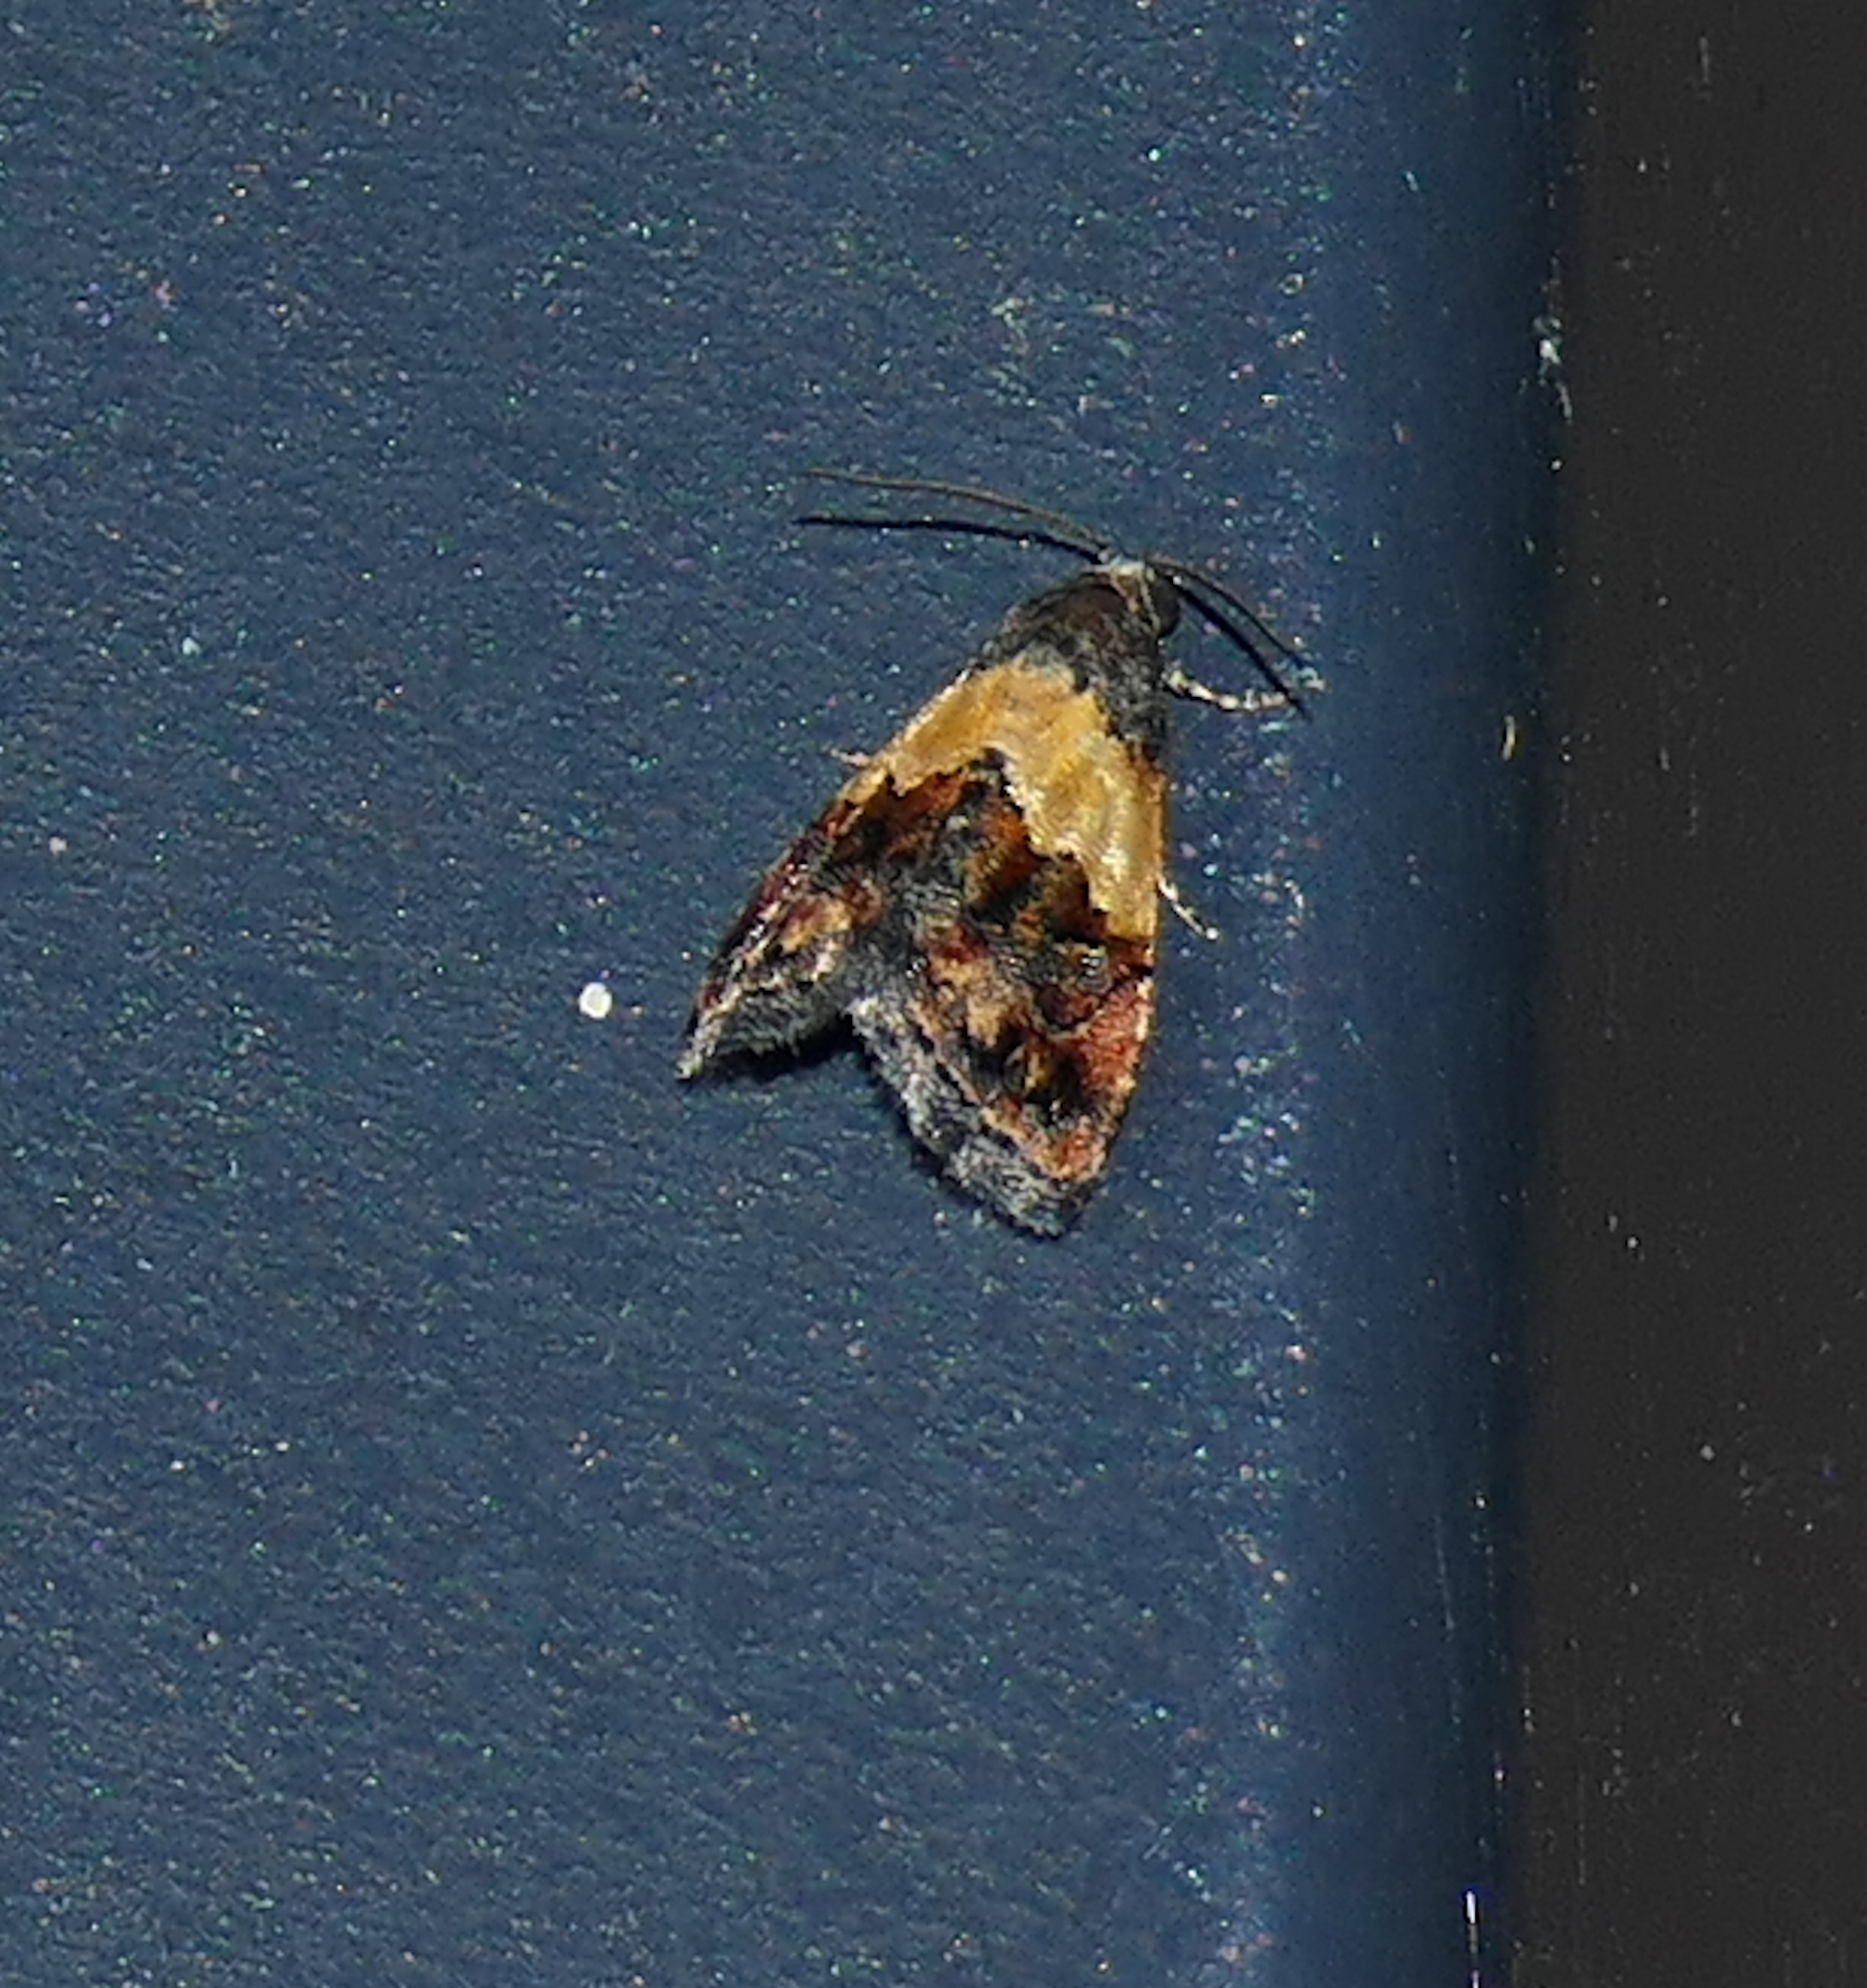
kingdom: Animalia
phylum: Arthropoda
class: Insecta
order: Lepidoptera
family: Noctuidae
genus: Tripudia
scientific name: Tripudia flavofasciata
